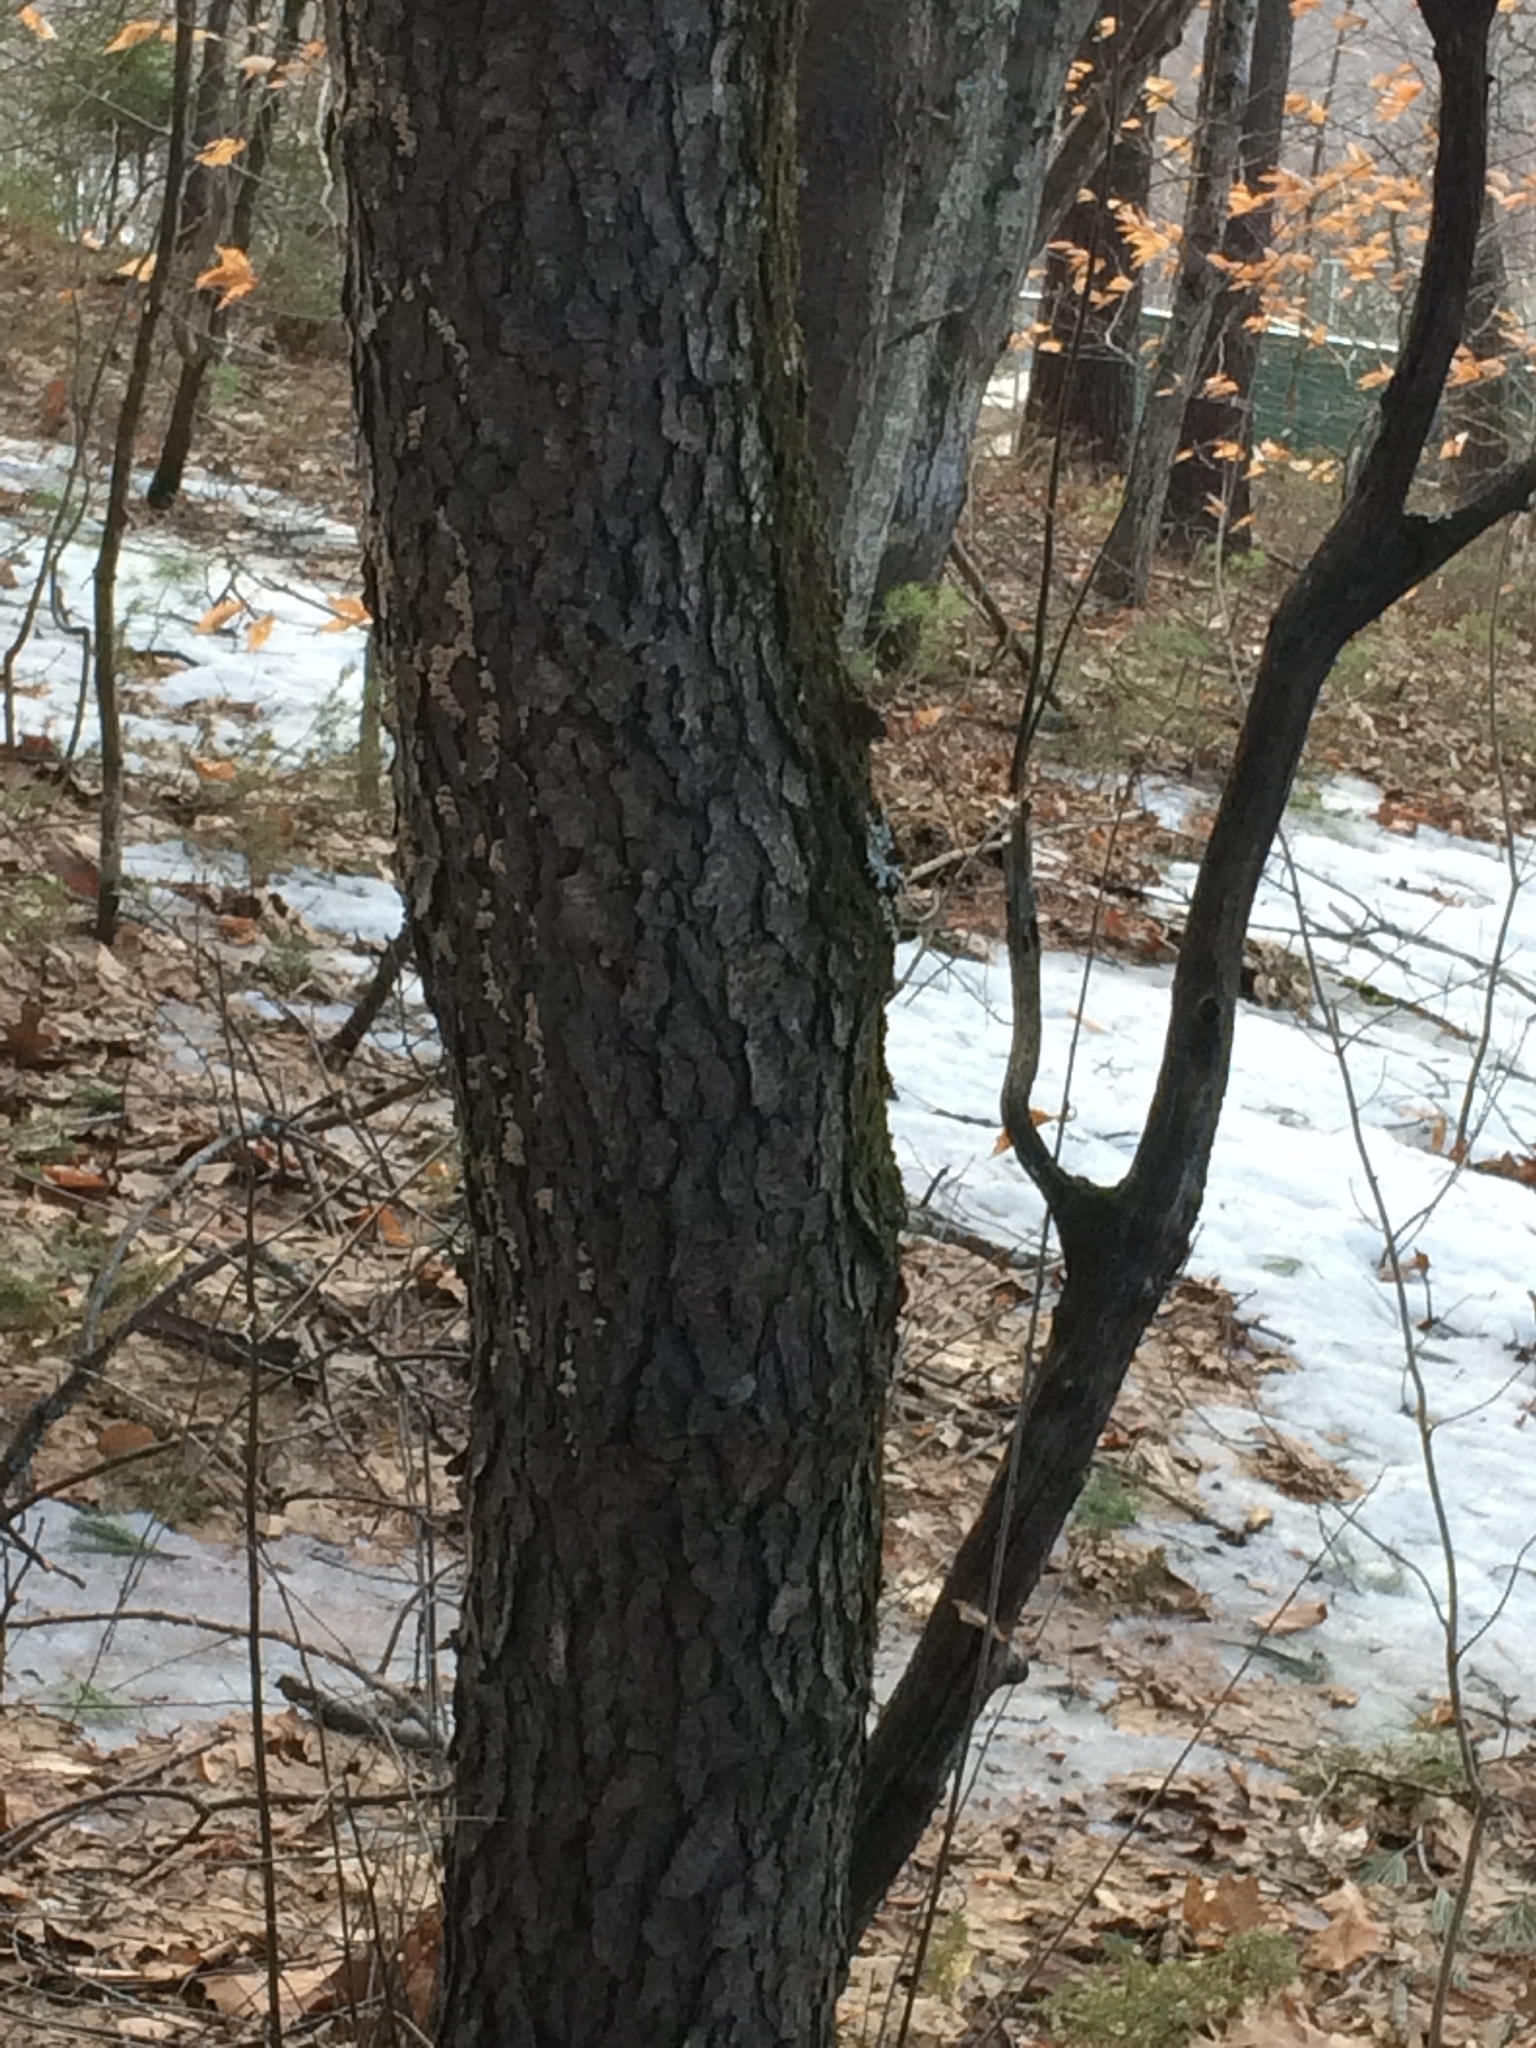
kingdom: Plantae
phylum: Tracheophyta
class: Magnoliopsida
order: Rosales
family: Rosaceae
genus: Prunus
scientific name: Prunus serotina
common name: Black cherry
